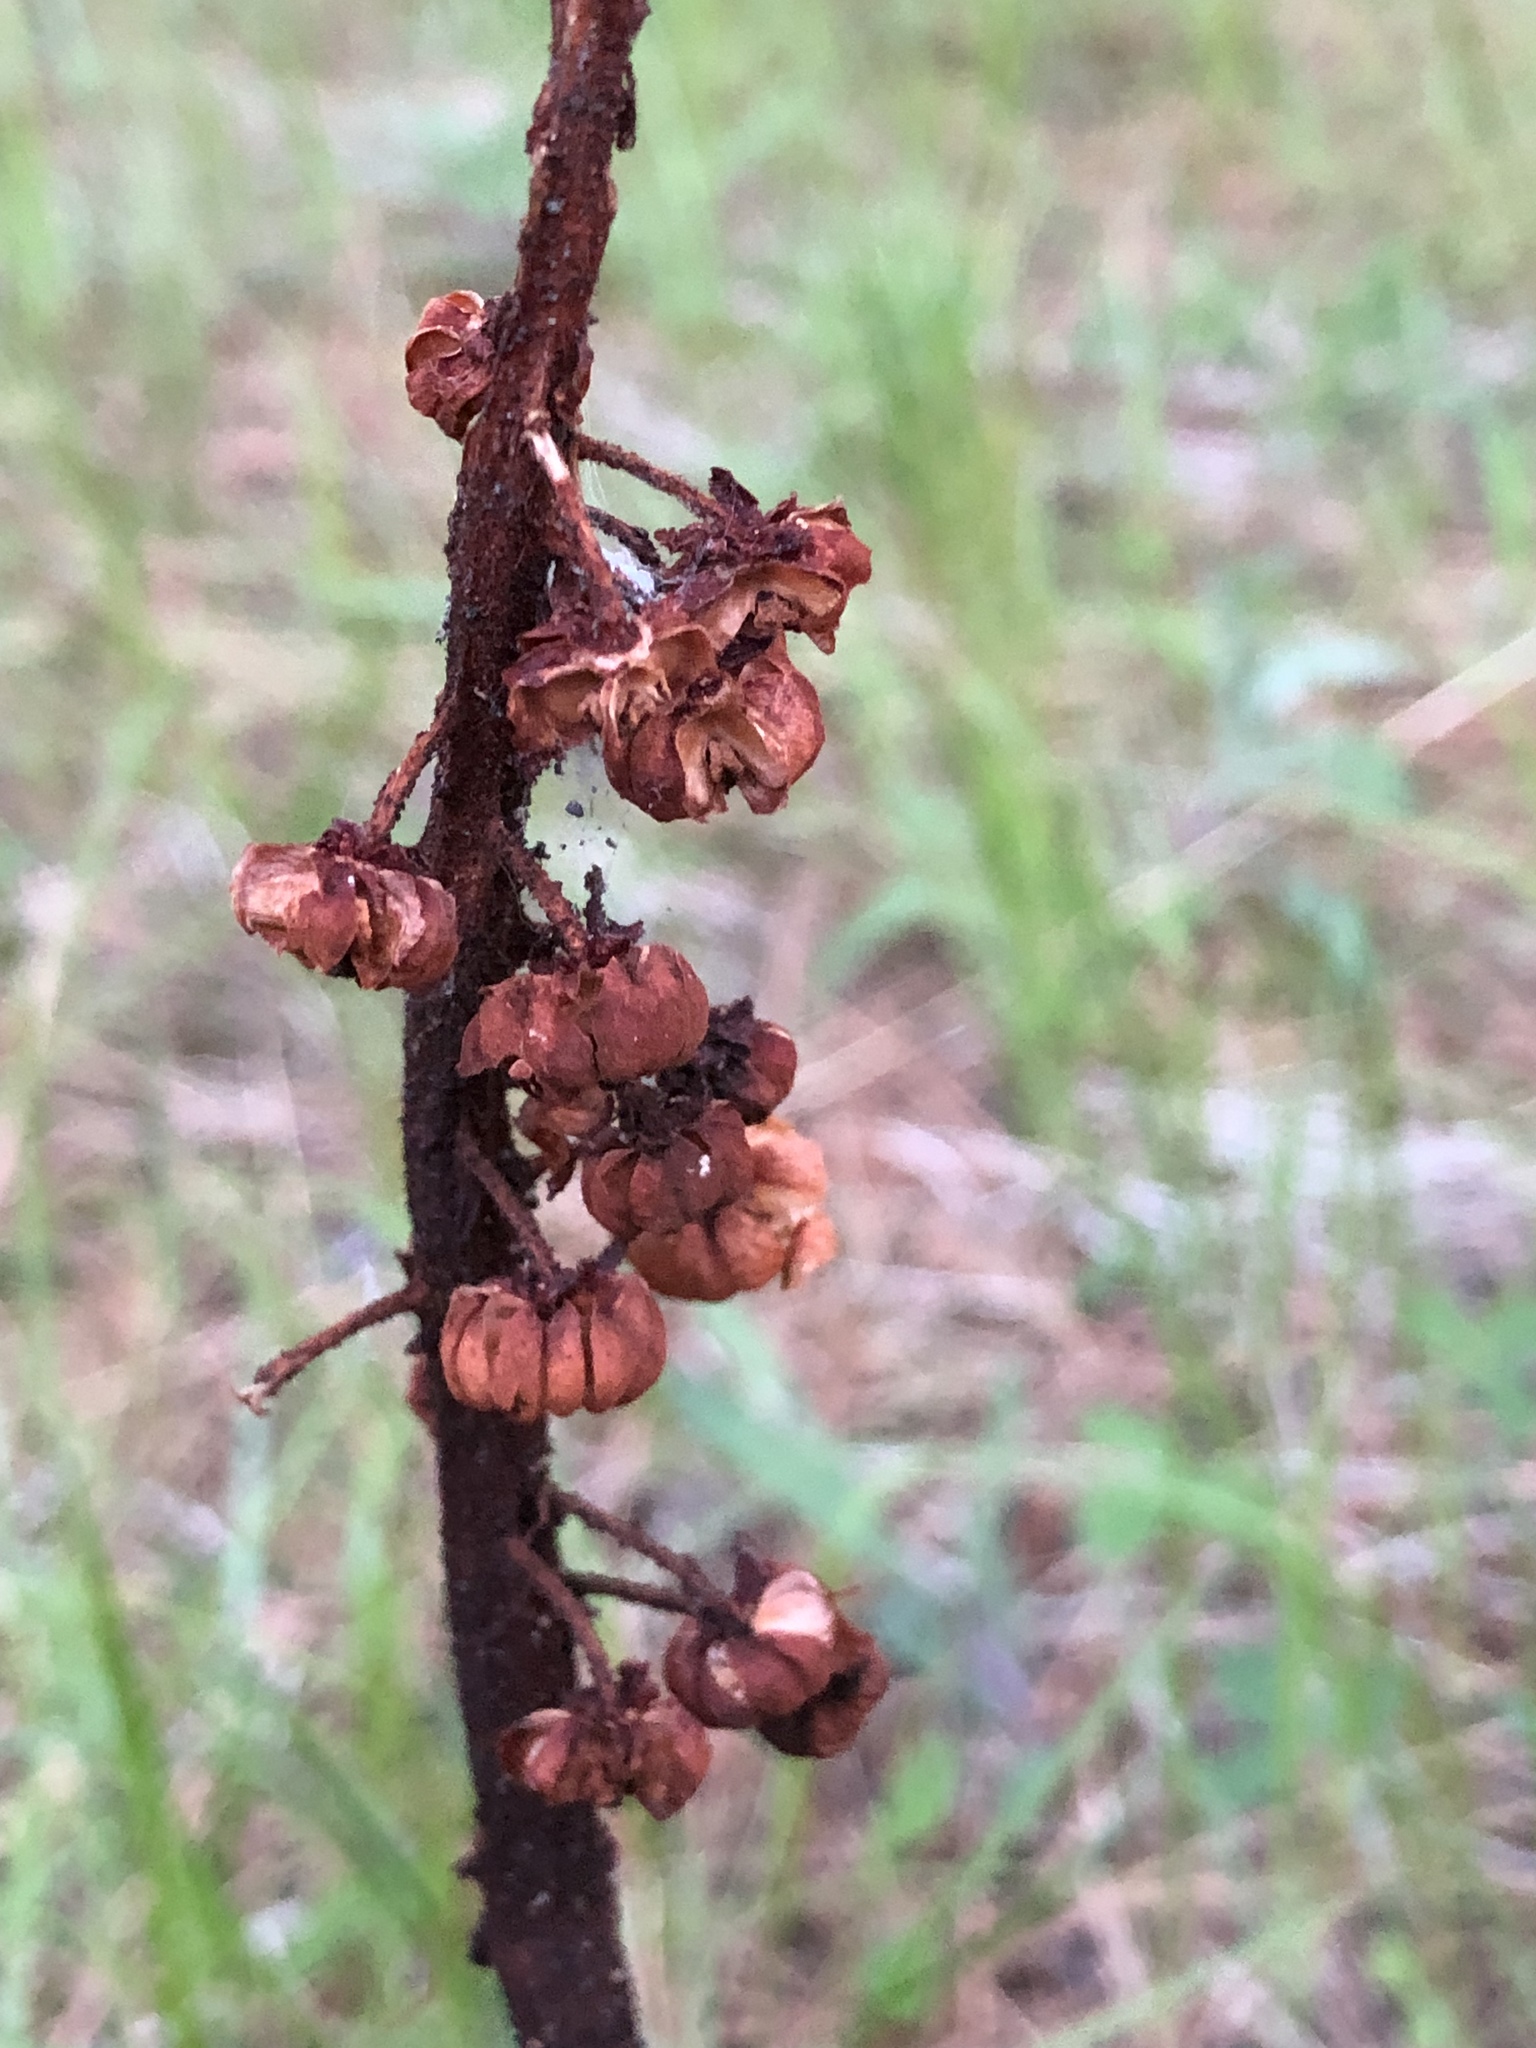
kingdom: Plantae
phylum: Tracheophyta
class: Magnoliopsida
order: Ericales
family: Ericaceae
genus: Pterospora
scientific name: Pterospora andromedea
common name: Giant bird's-nest
